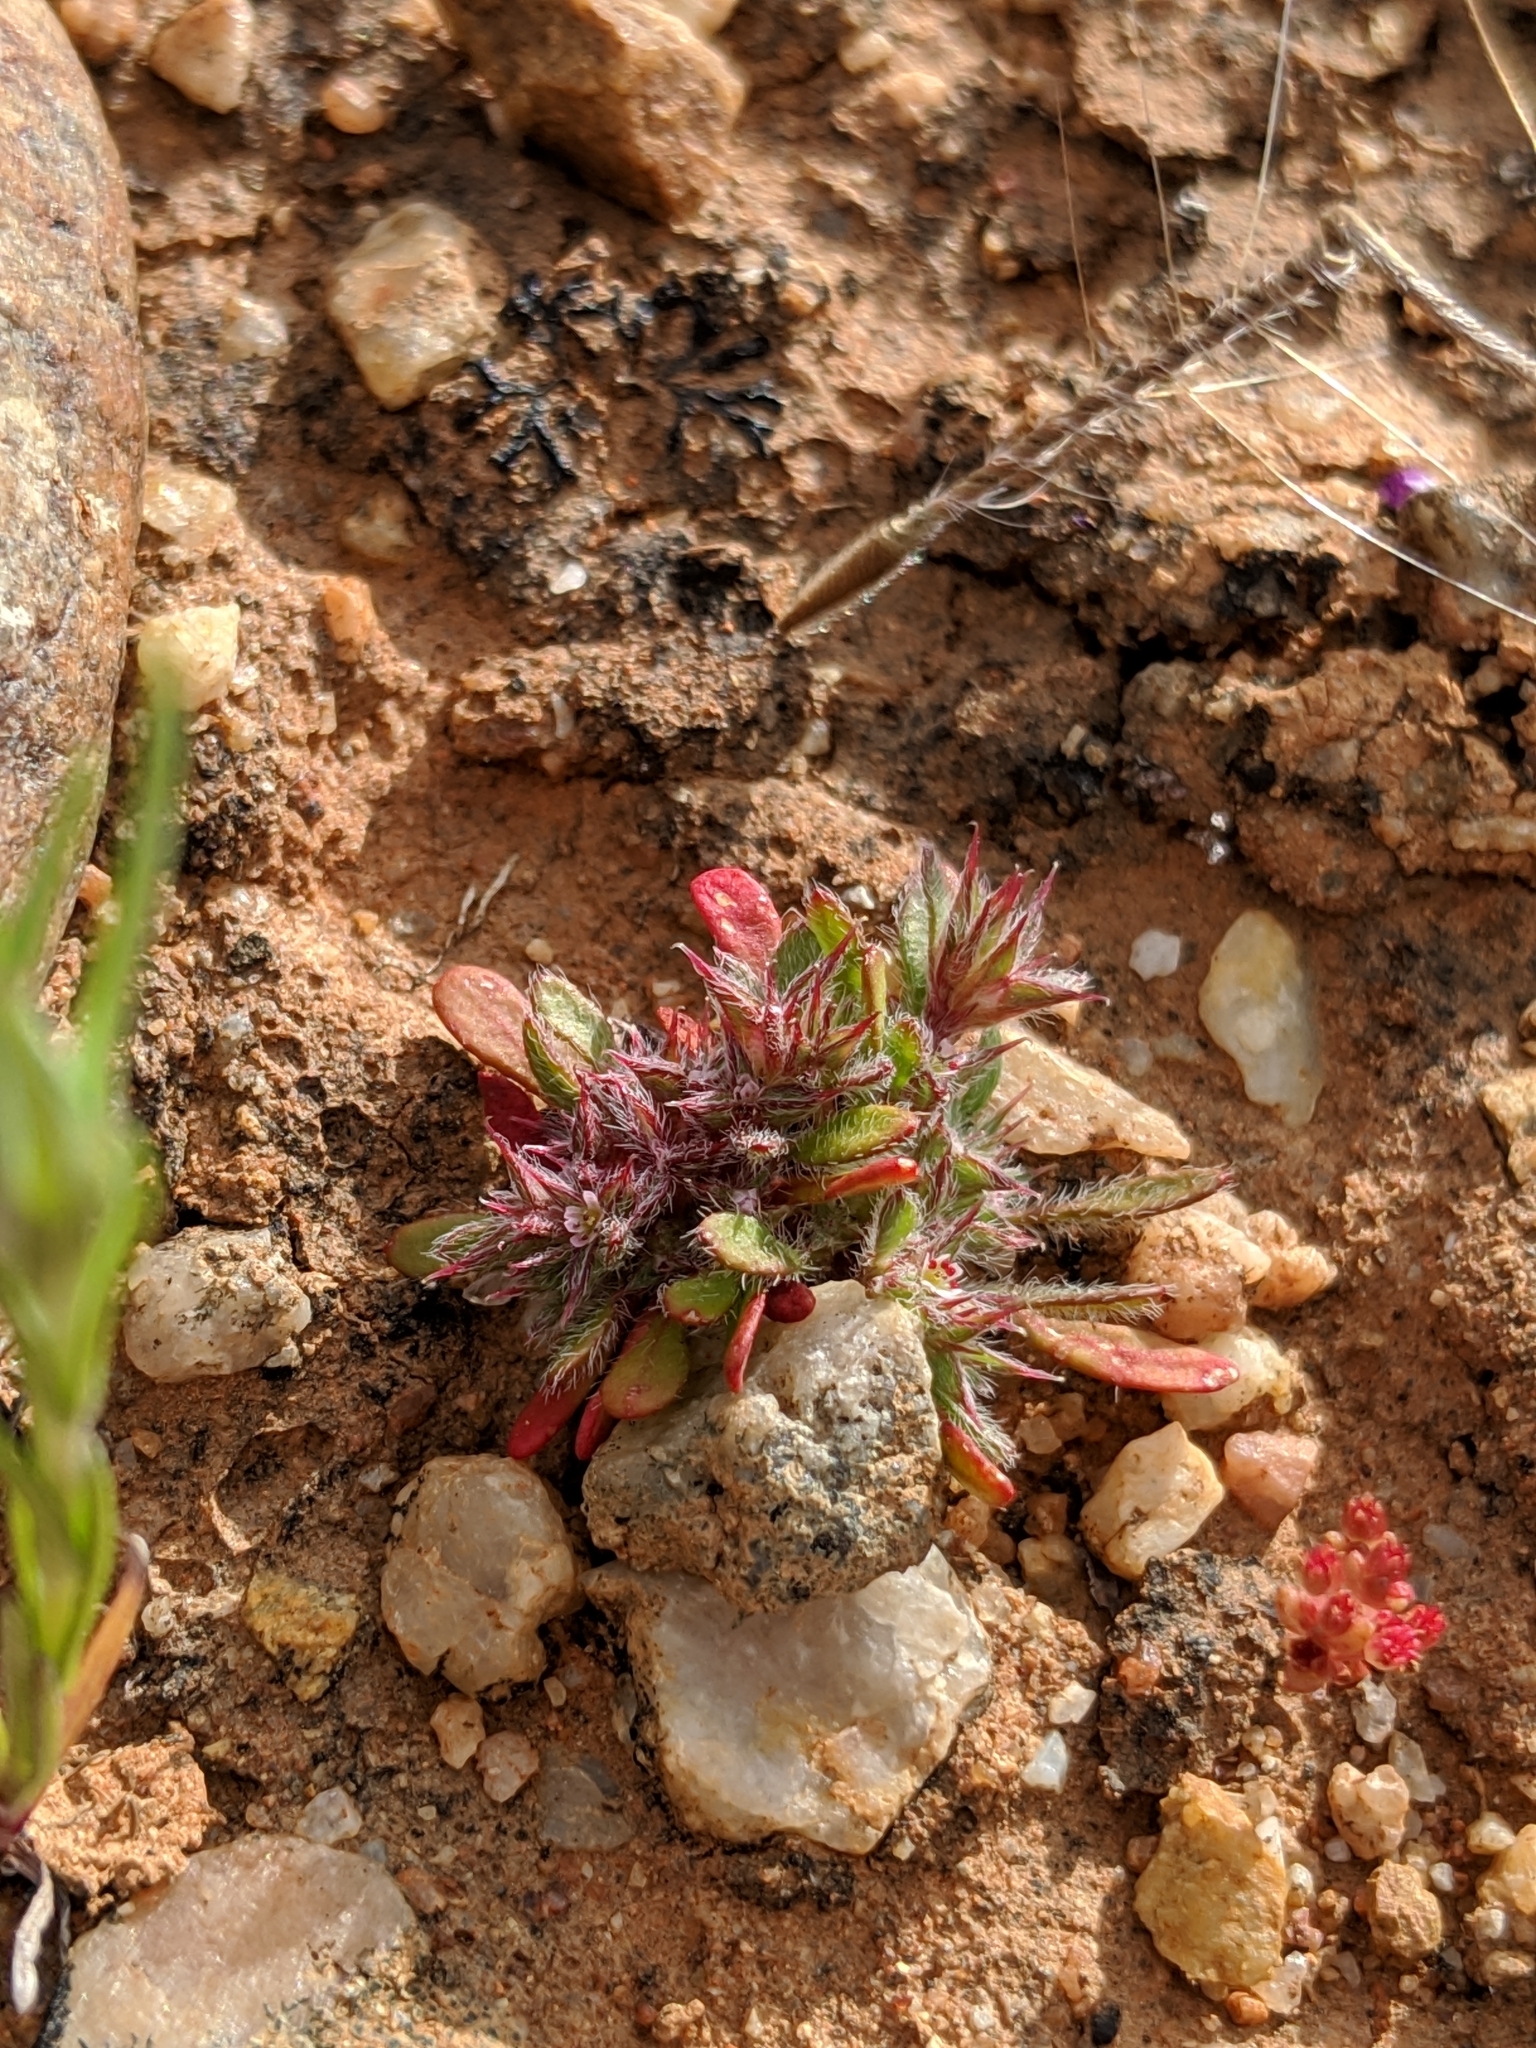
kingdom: Plantae
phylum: Tracheophyta
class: Magnoliopsida
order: Caryophyllales
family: Polygonaceae
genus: Chorizanthe
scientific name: Chorizanthe polygonoides
